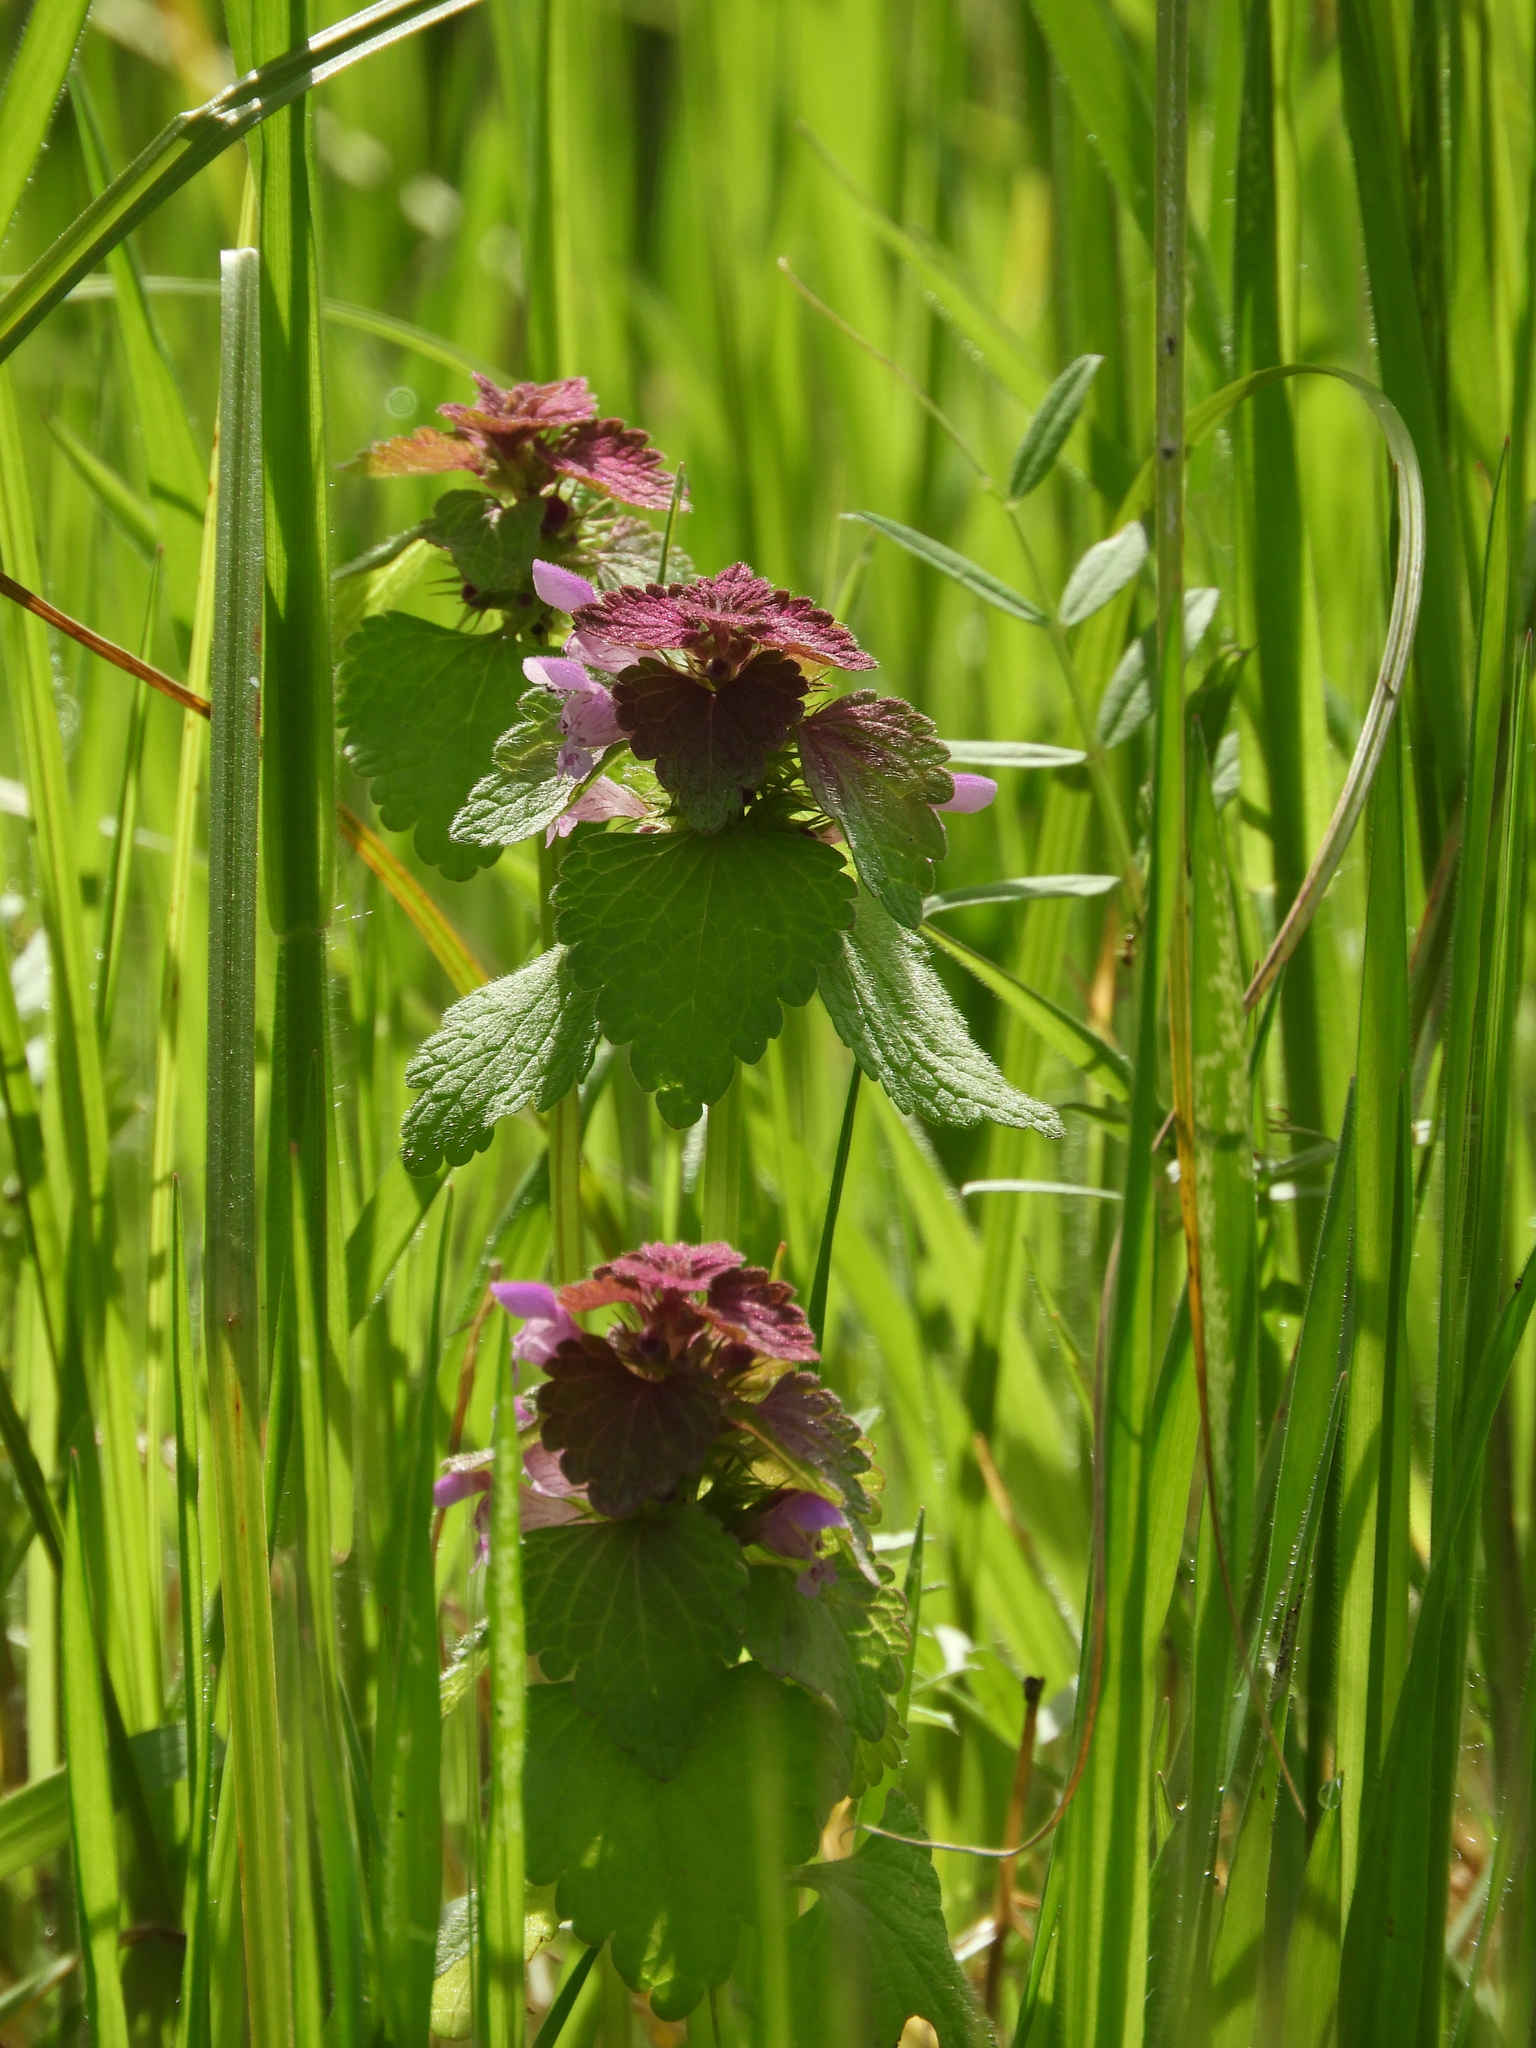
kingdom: Plantae
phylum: Tracheophyta
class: Magnoliopsida
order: Lamiales
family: Lamiaceae
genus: Lamium
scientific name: Lamium purpureum
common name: Red dead-nettle
